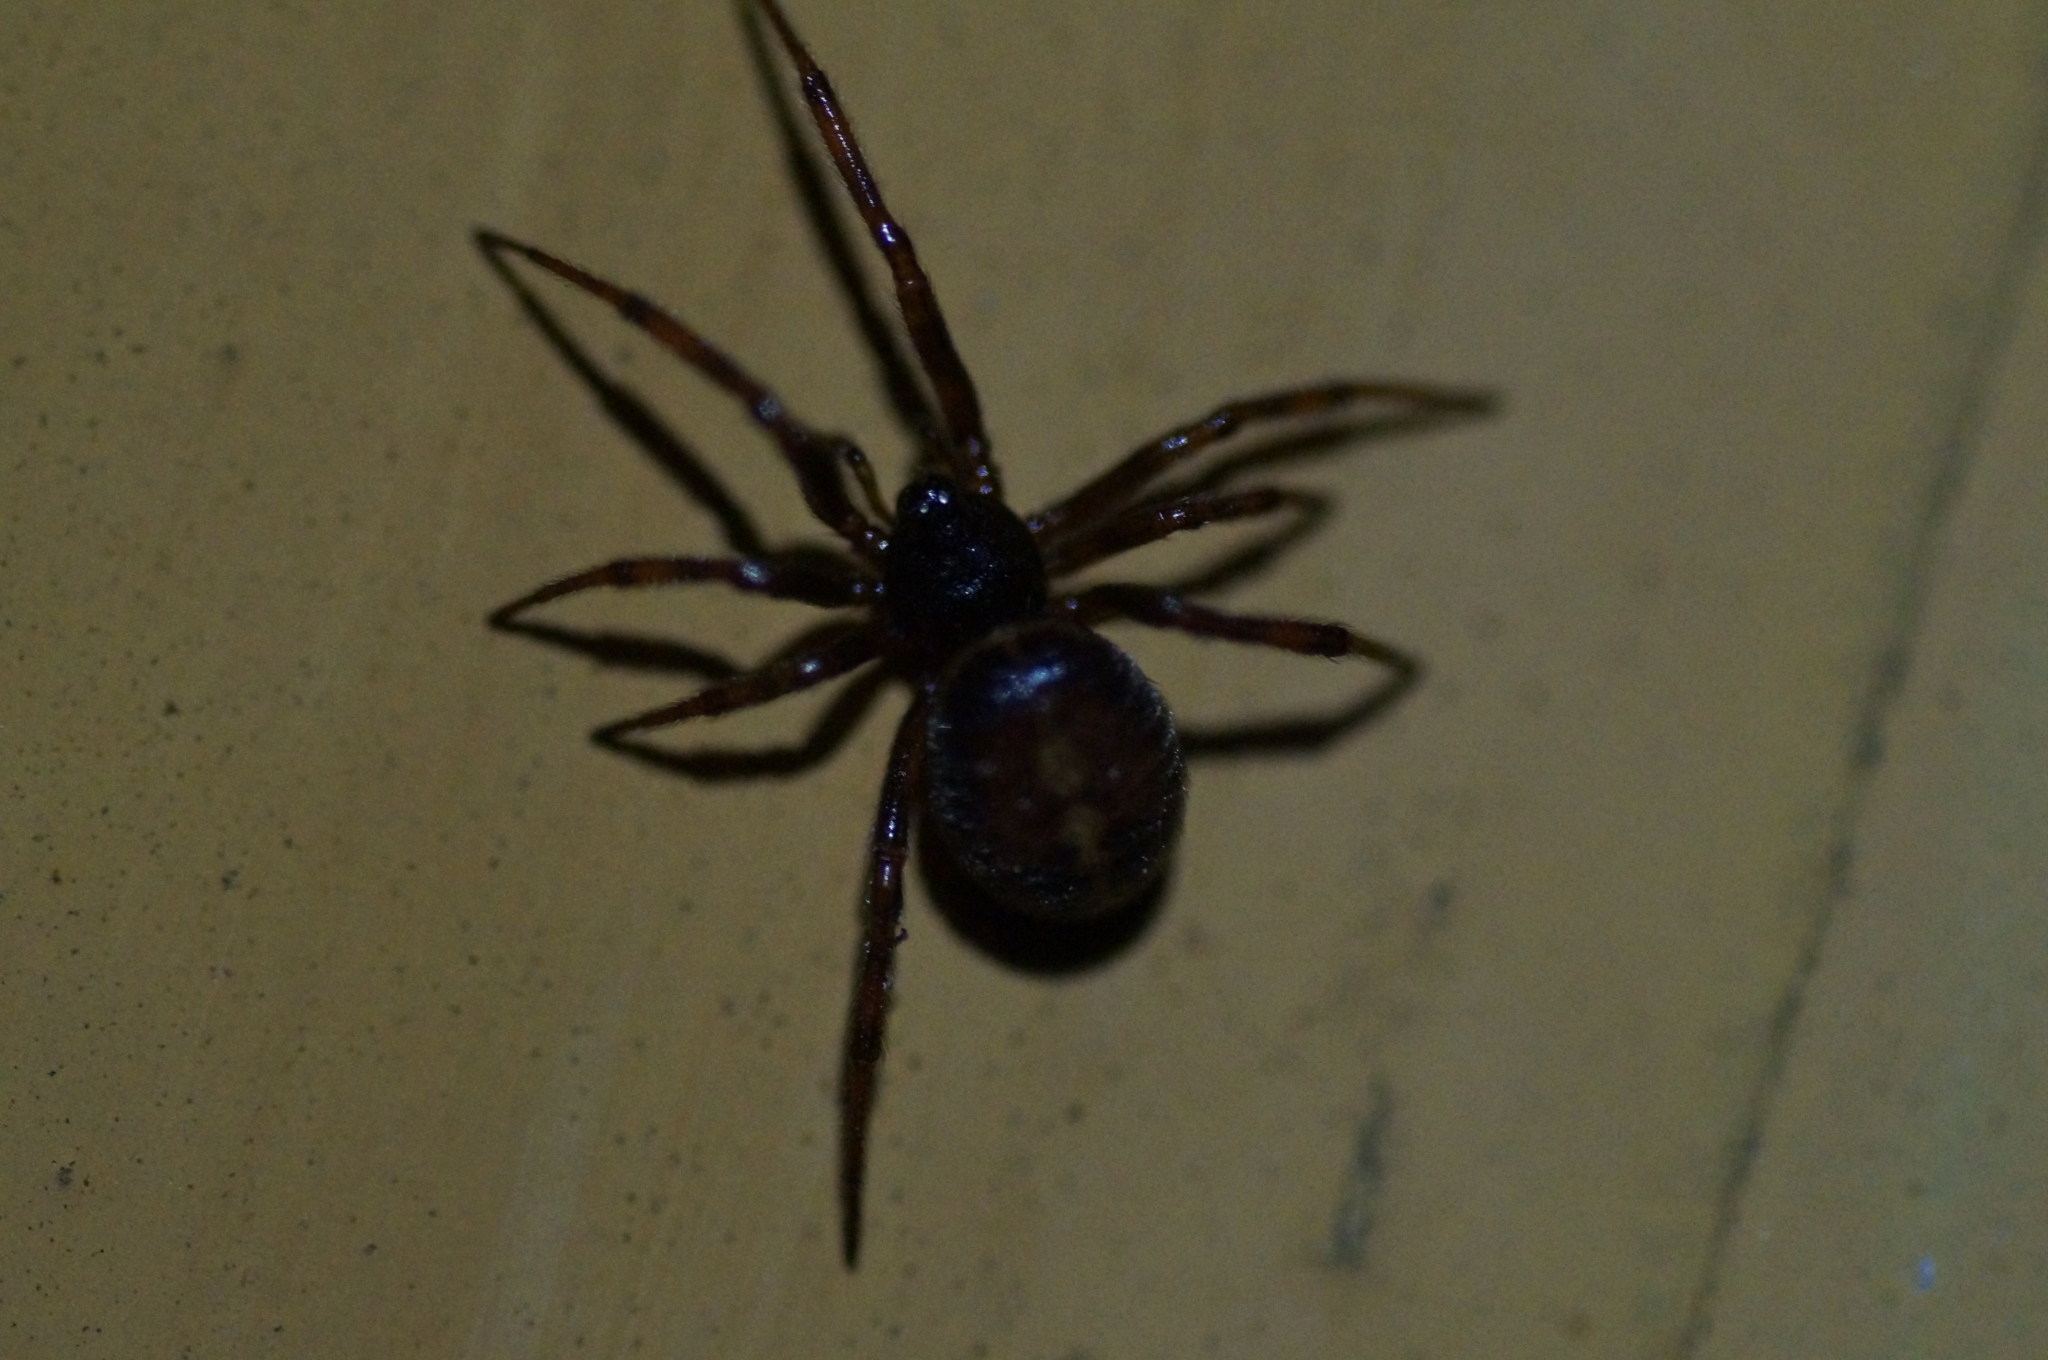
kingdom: Animalia
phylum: Arthropoda
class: Arachnida
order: Araneae
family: Theridiidae
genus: Steatoda
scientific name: Steatoda bipunctata
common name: False widow
